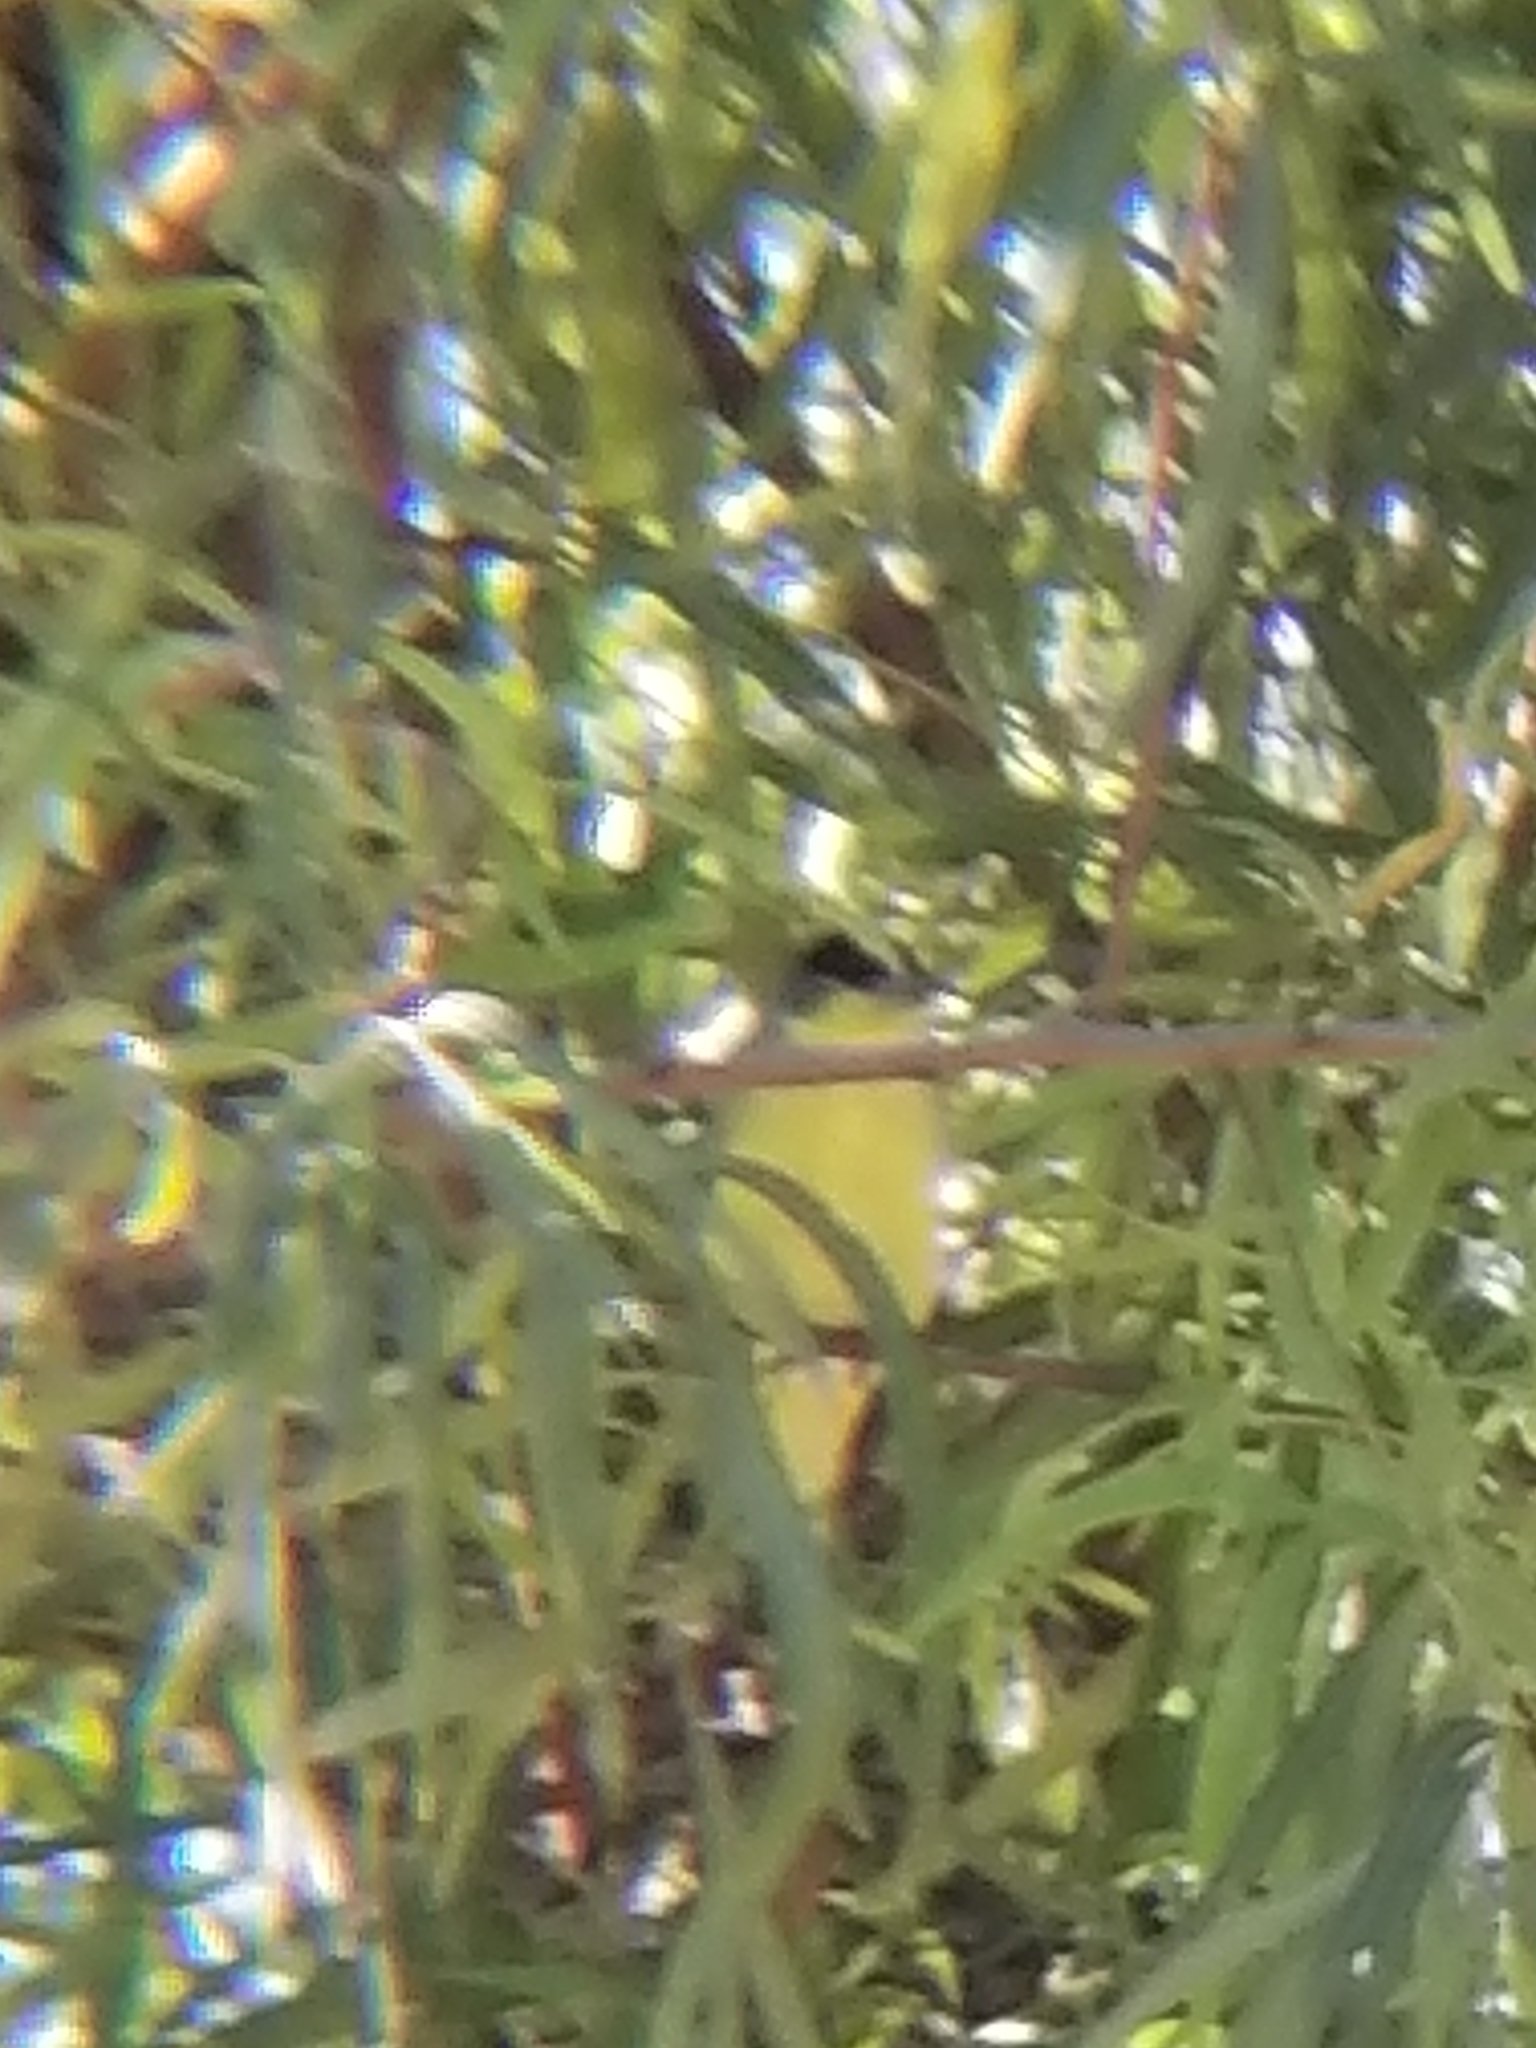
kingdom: Animalia
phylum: Chordata
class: Aves
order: Passeriformes
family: Fringillidae
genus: Spinus
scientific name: Spinus psaltria
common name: Lesser goldfinch
